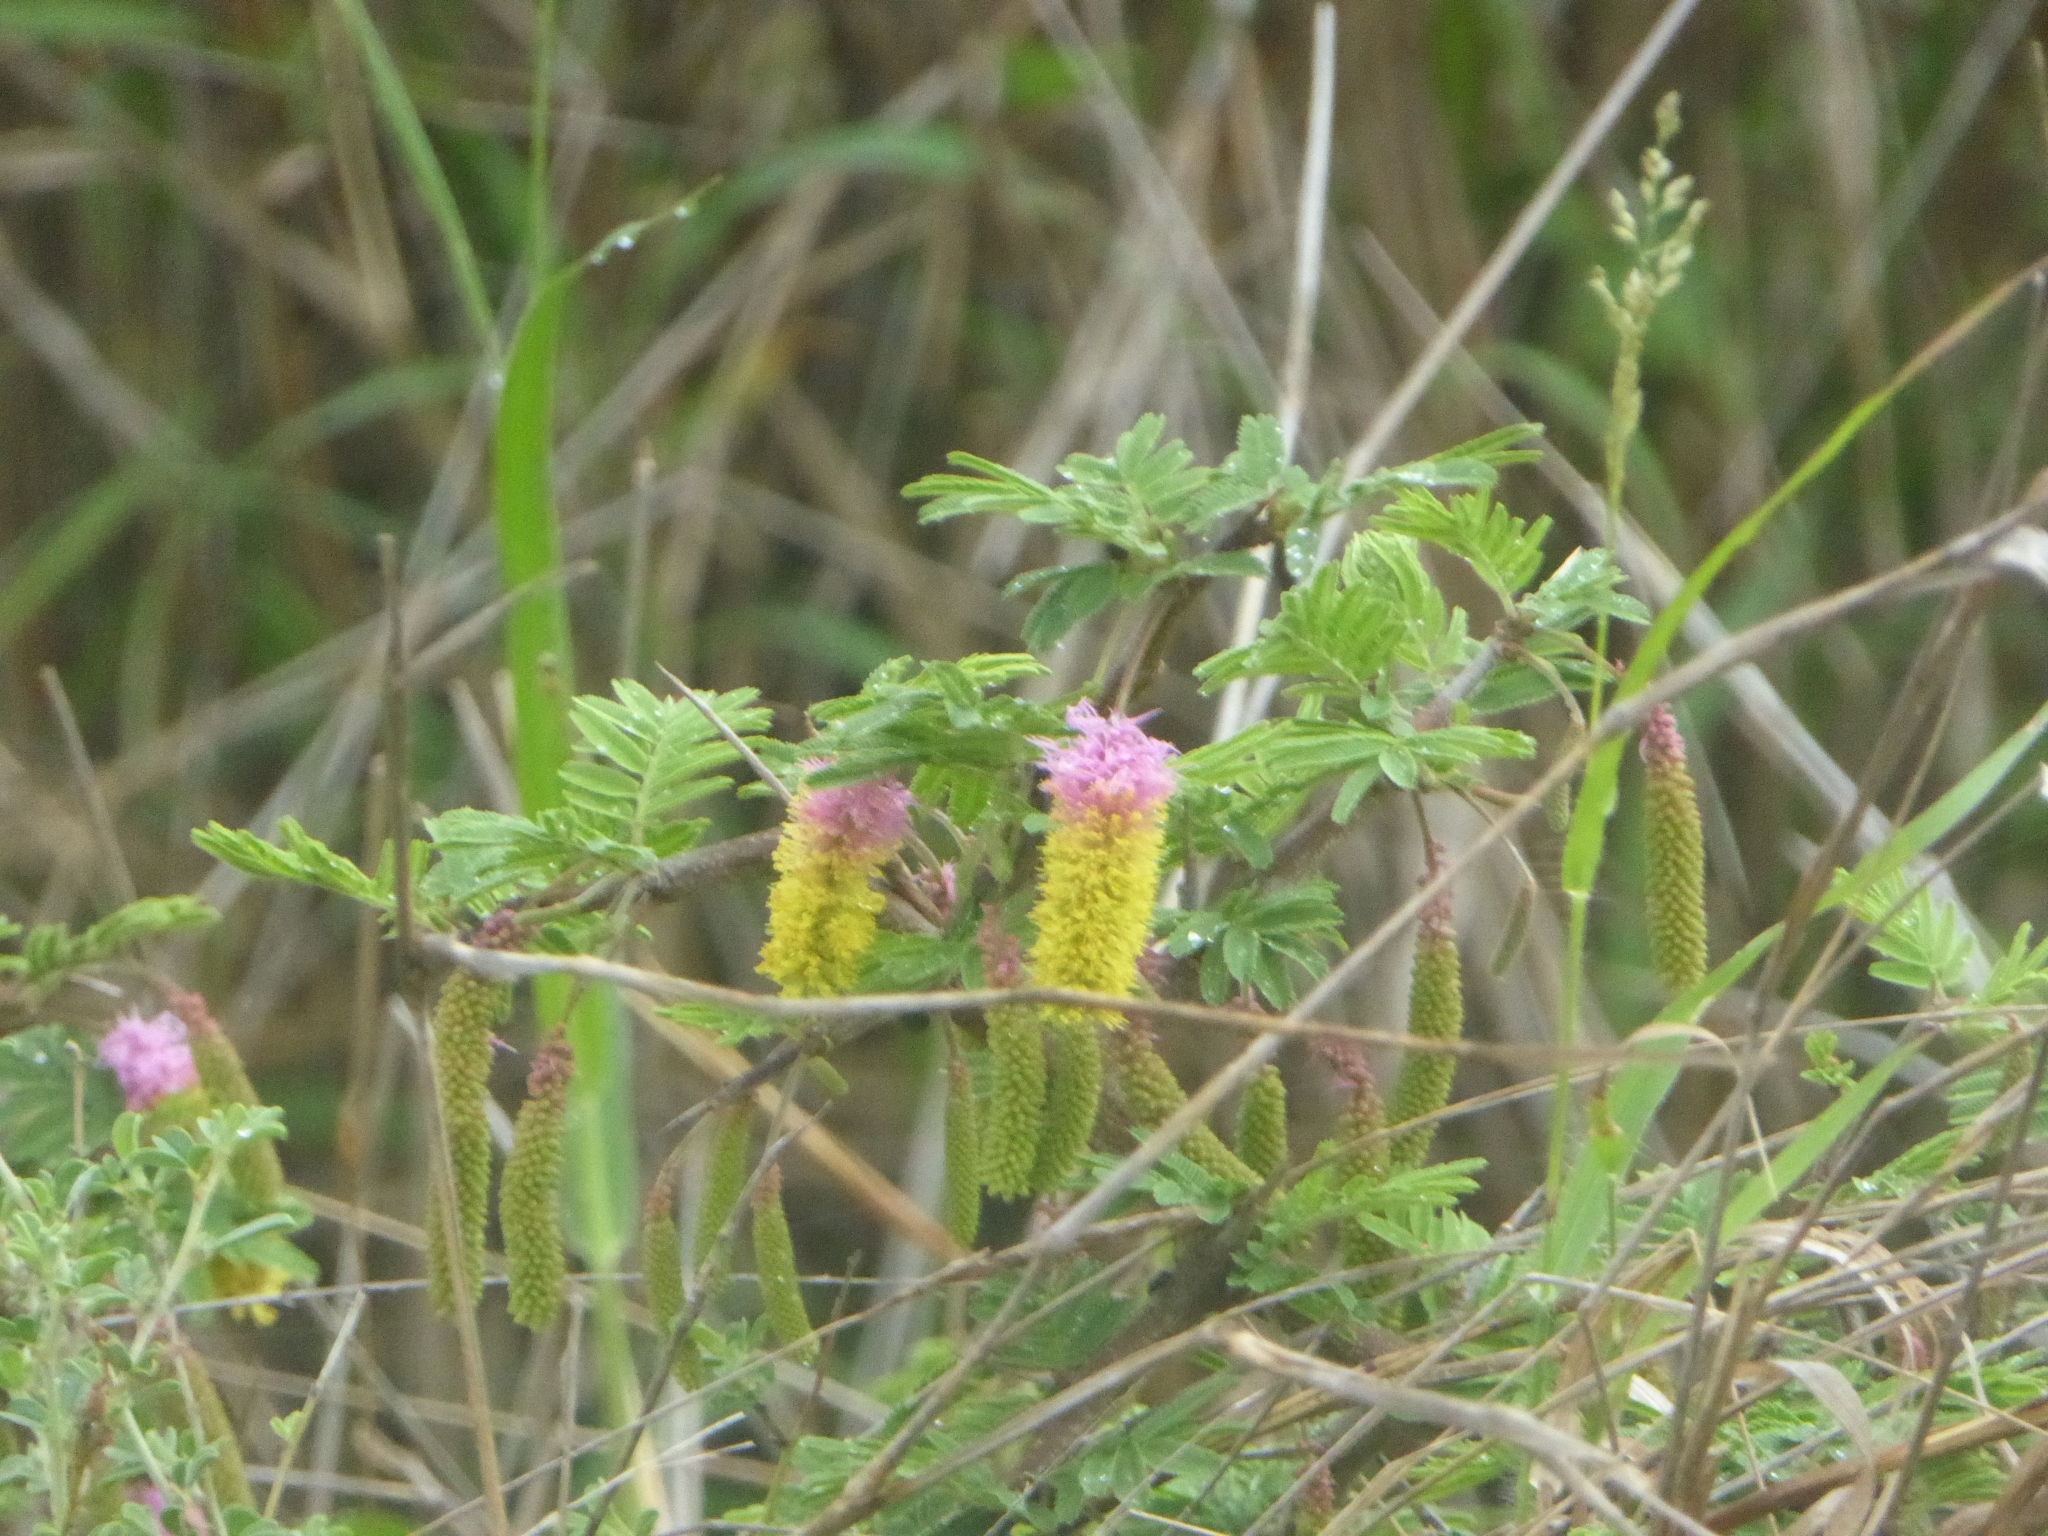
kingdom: Plantae
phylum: Tracheophyta
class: Magnoliopsida
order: Fabales
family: Fabaceae
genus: Dichrostachys
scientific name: Dichrostachys cinerea
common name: Sicklebush
